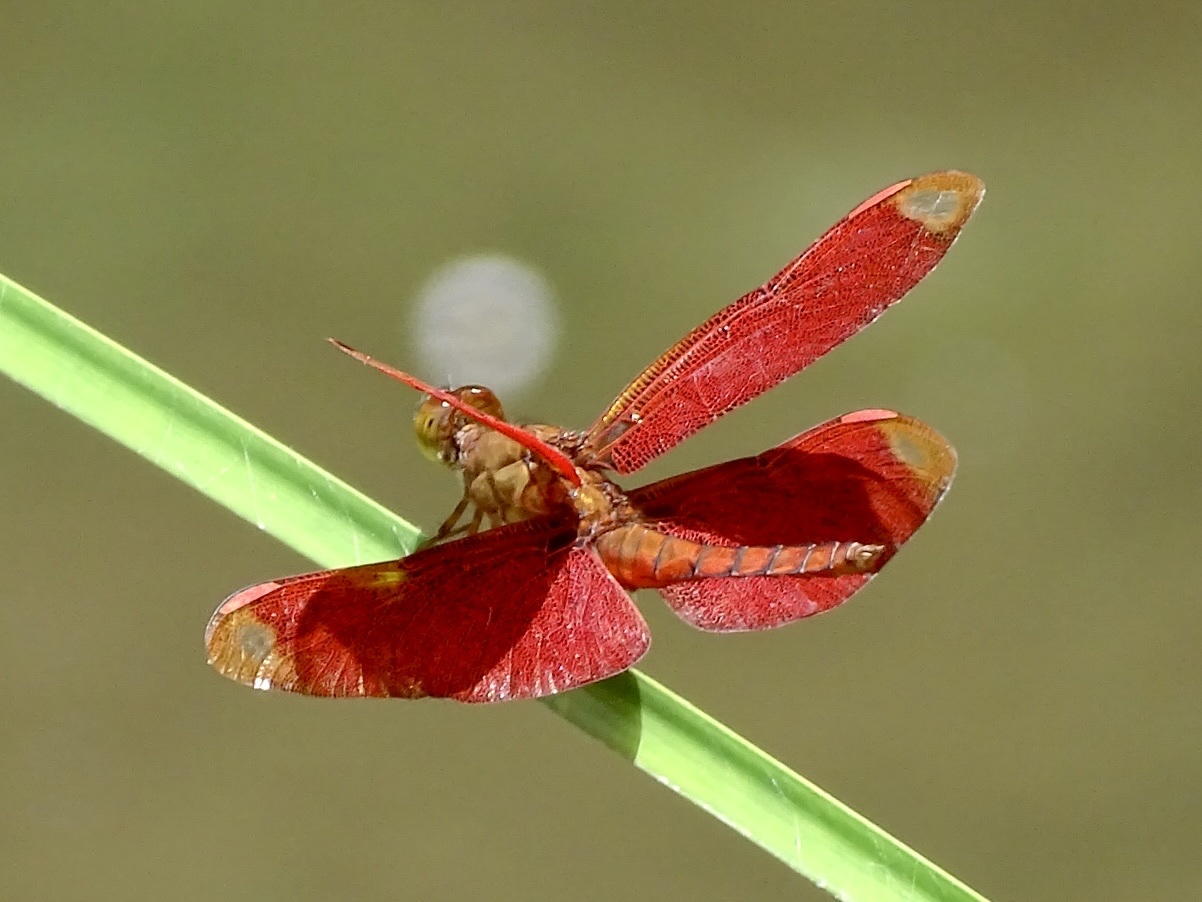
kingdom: Animalia
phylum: Arthropoda
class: Insecta
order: Odonata
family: Libellulidae
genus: Neurothemis
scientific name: Neurothemis fulvia
